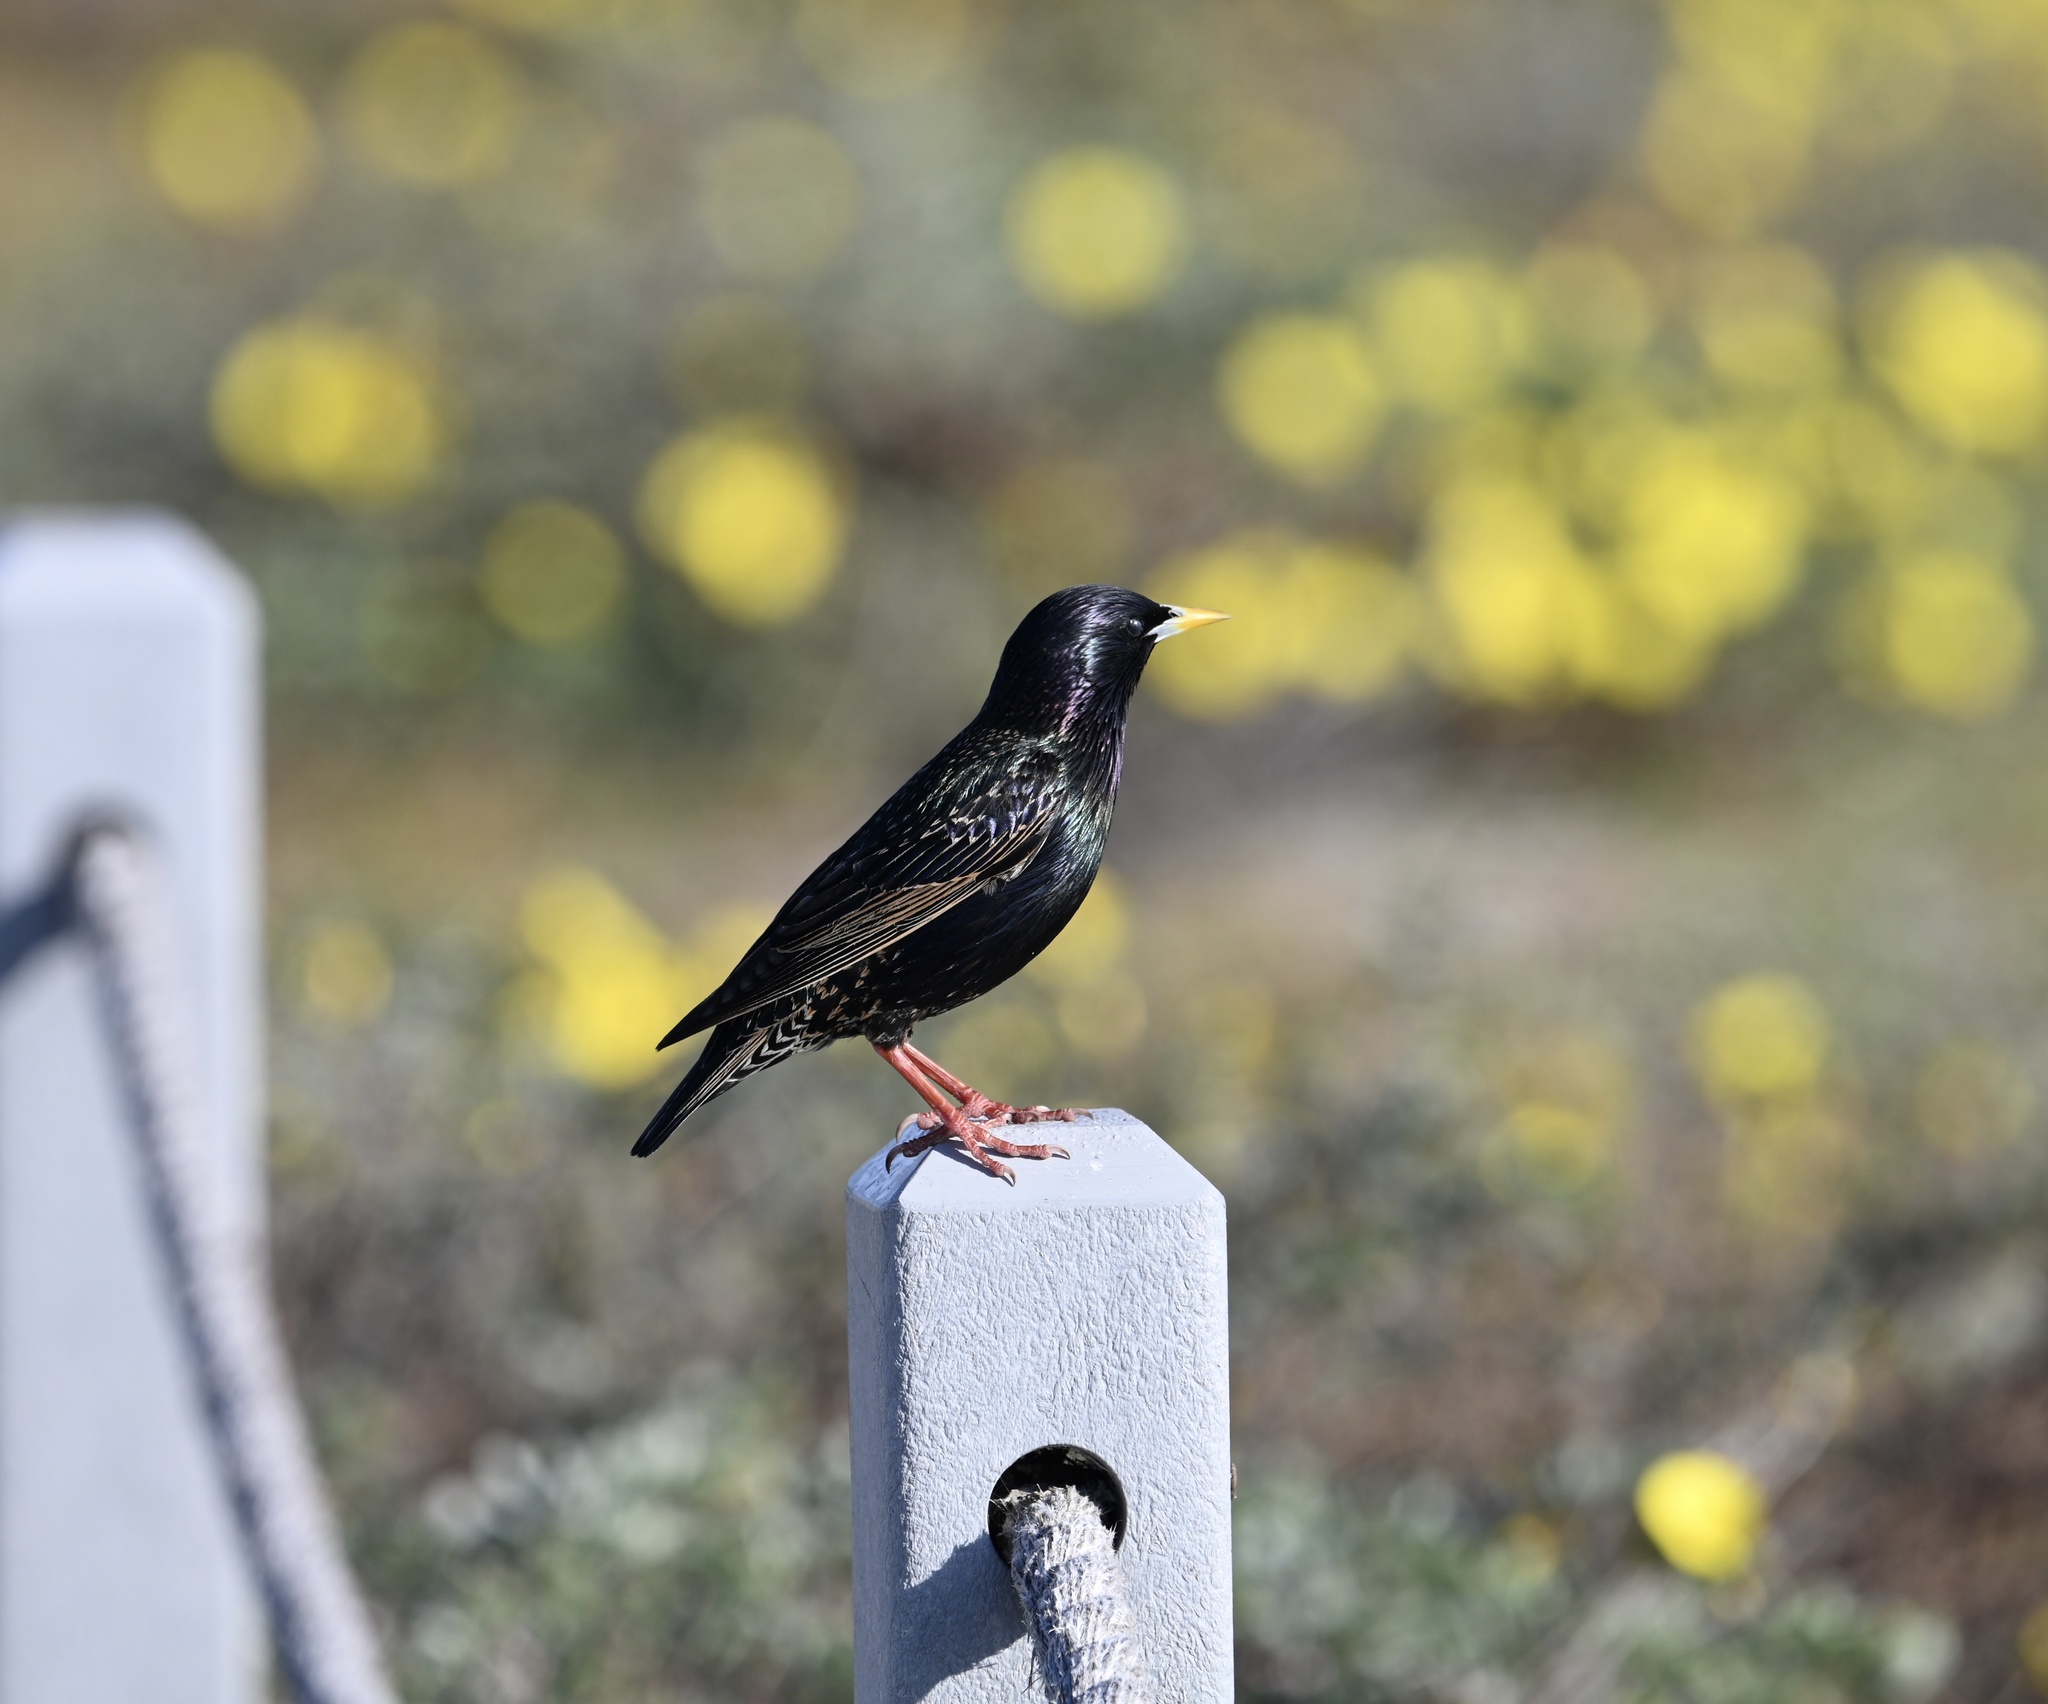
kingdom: Animalia
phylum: Chordata
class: Aves
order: Passeriformes
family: Sturnidae
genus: Sturnus
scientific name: Sturnus vulgaris
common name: Common starling
